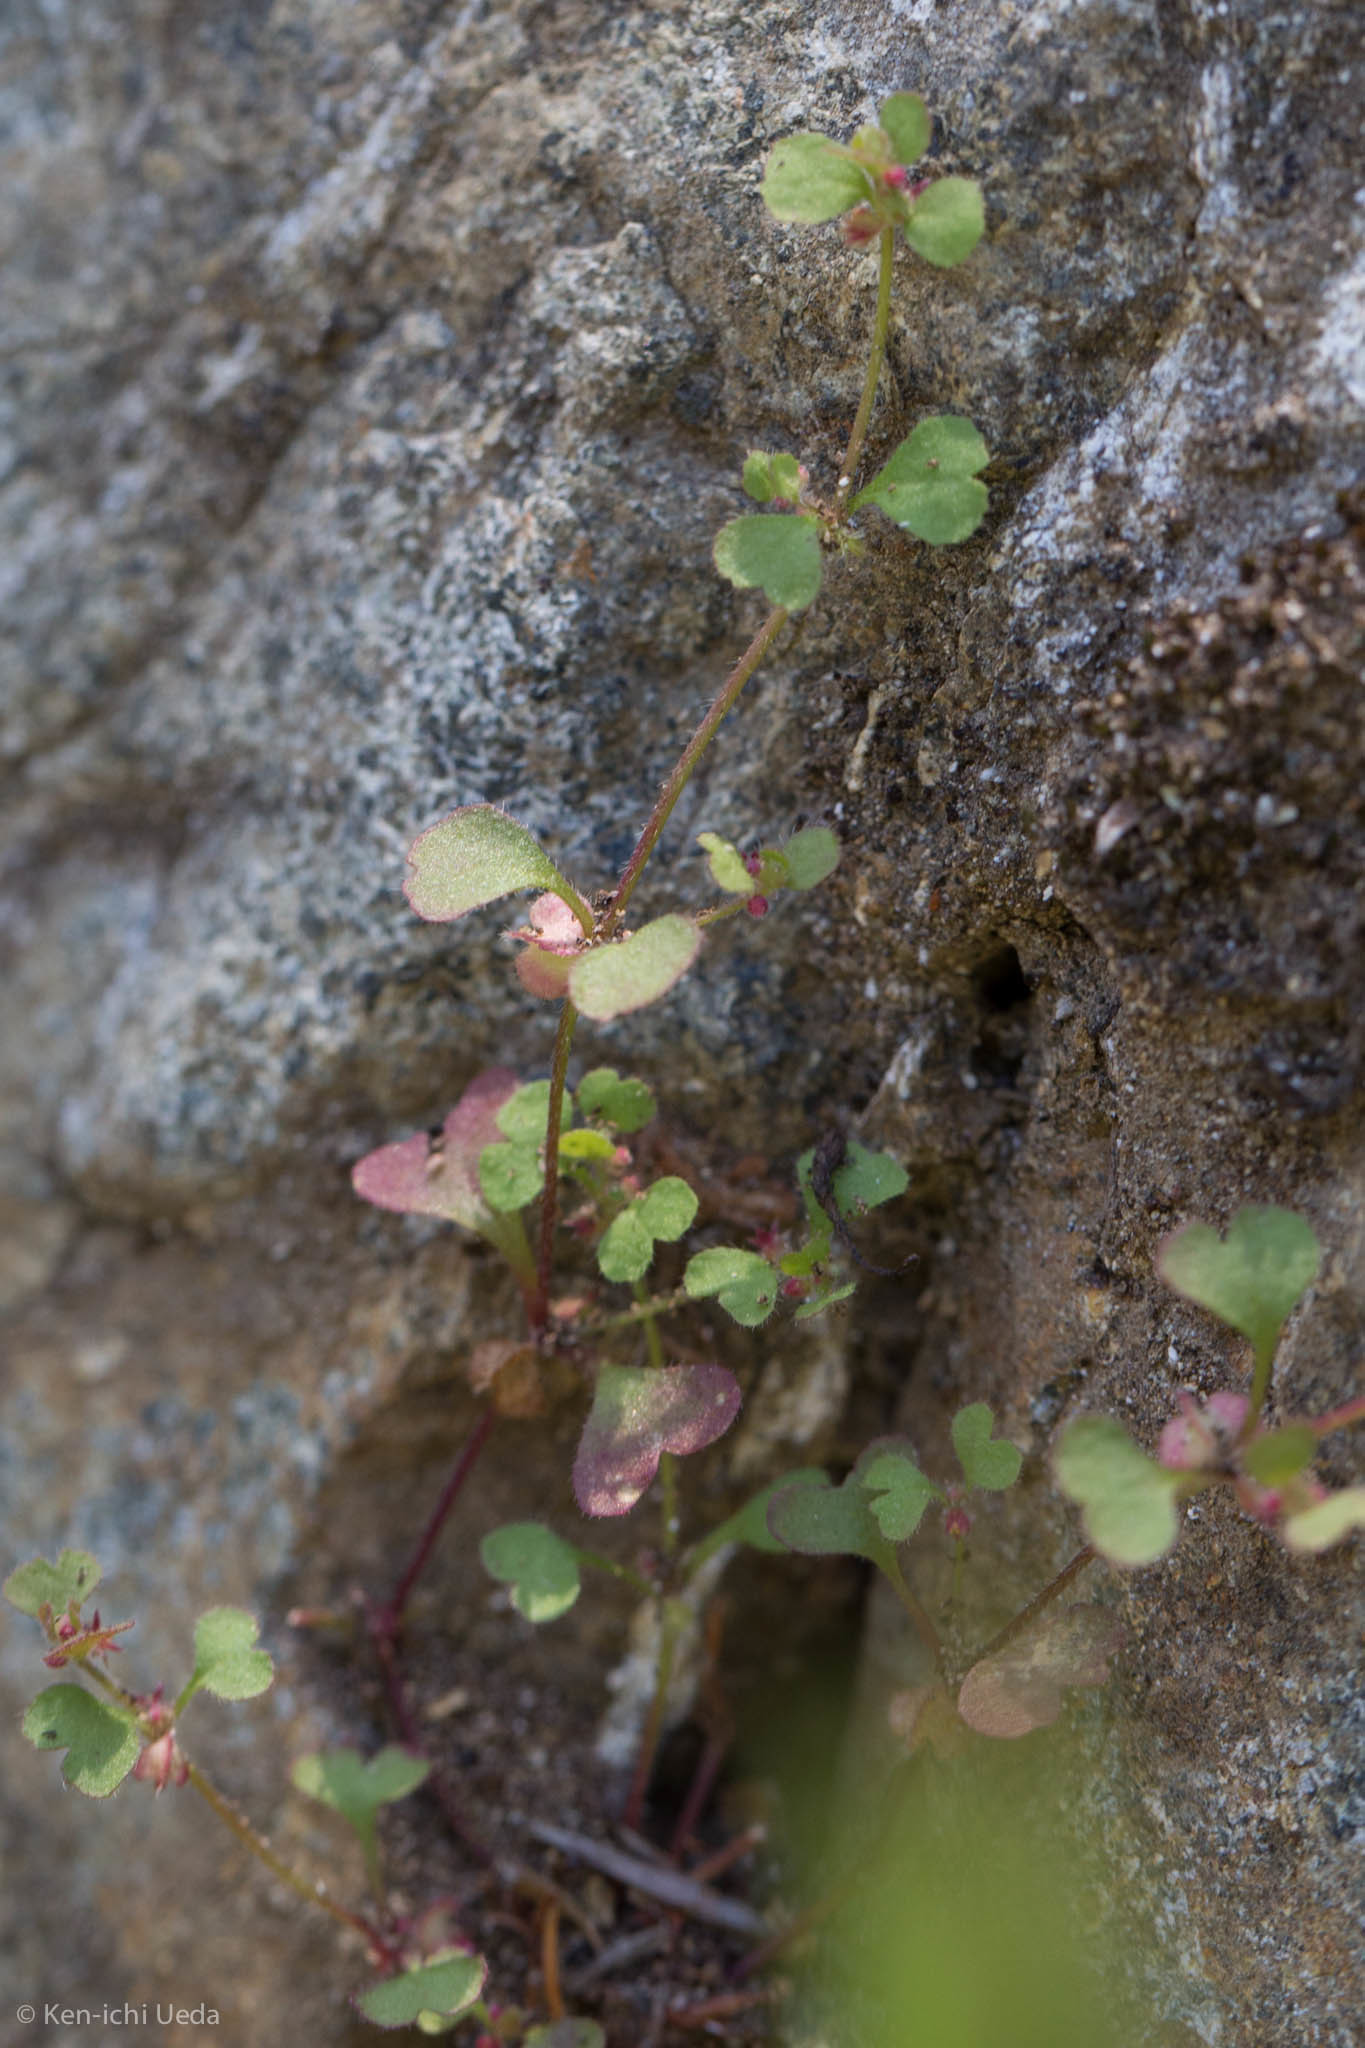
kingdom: Plantae
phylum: Tracheophyta
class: Magnoliopsida
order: Caryophyllales
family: Polygonaceae
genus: Pterostegia
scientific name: Pterostegia drymarioides
